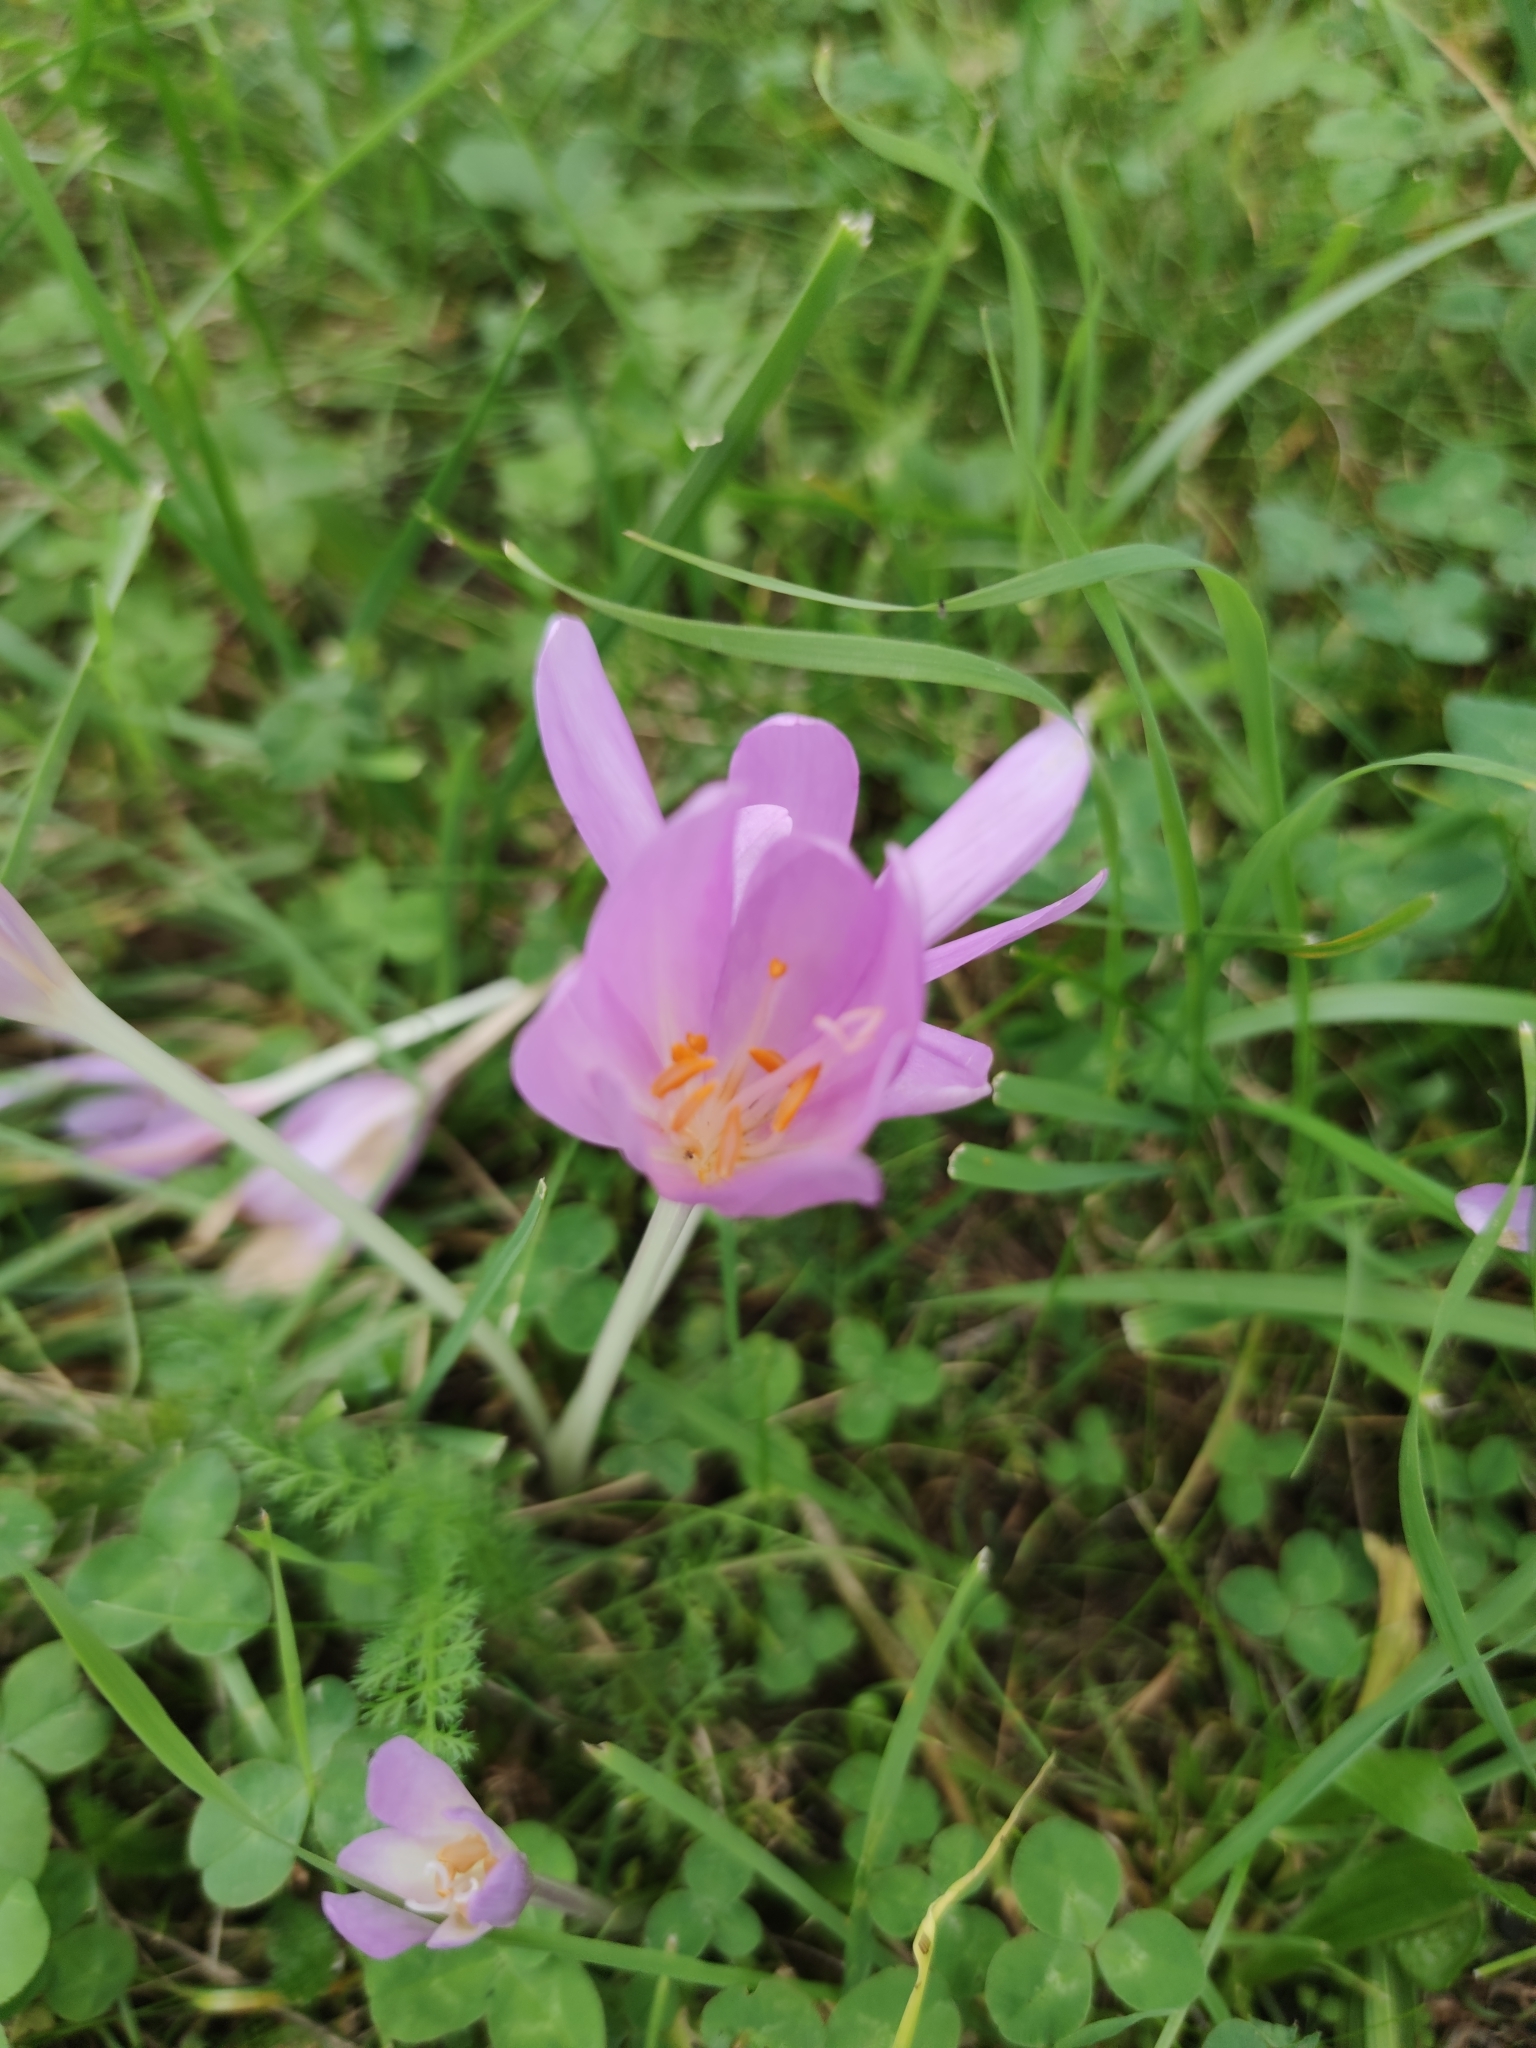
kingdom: Plantae
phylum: Tracheophyta
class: Liliopsida
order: Liliales
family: Colchicaceae
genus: Colchicum
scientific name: Colchicum autumnale
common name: Autumn crocus
